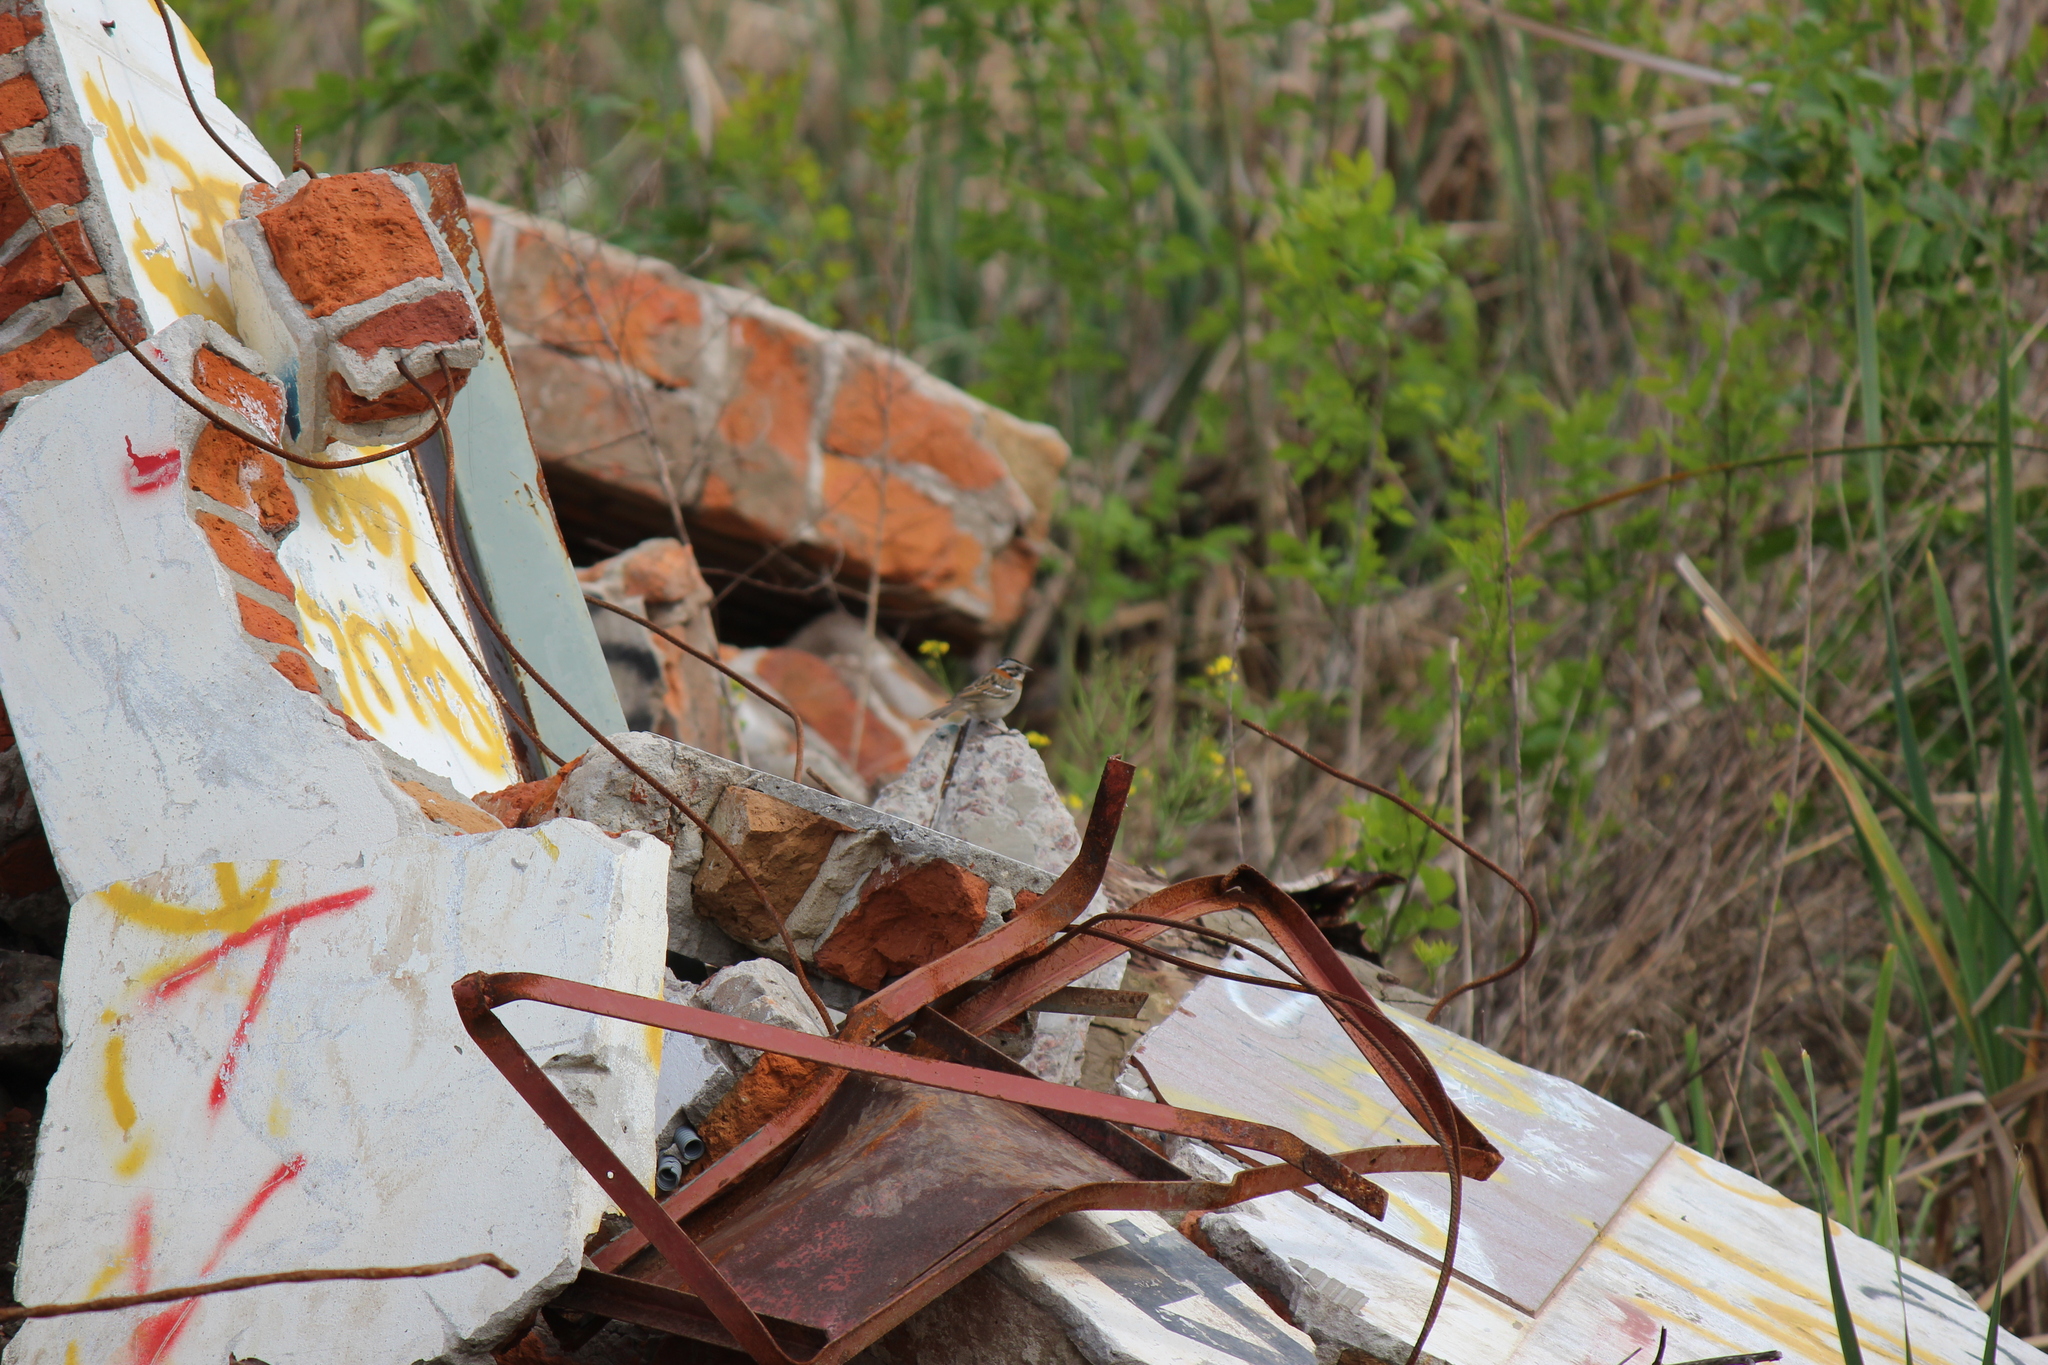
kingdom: Animalia
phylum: Chordata
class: Aves
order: Passeriformes
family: Passerellidae
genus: Zonotrichia
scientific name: Zonotrichia capensis
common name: Rufous-collared sparrow
